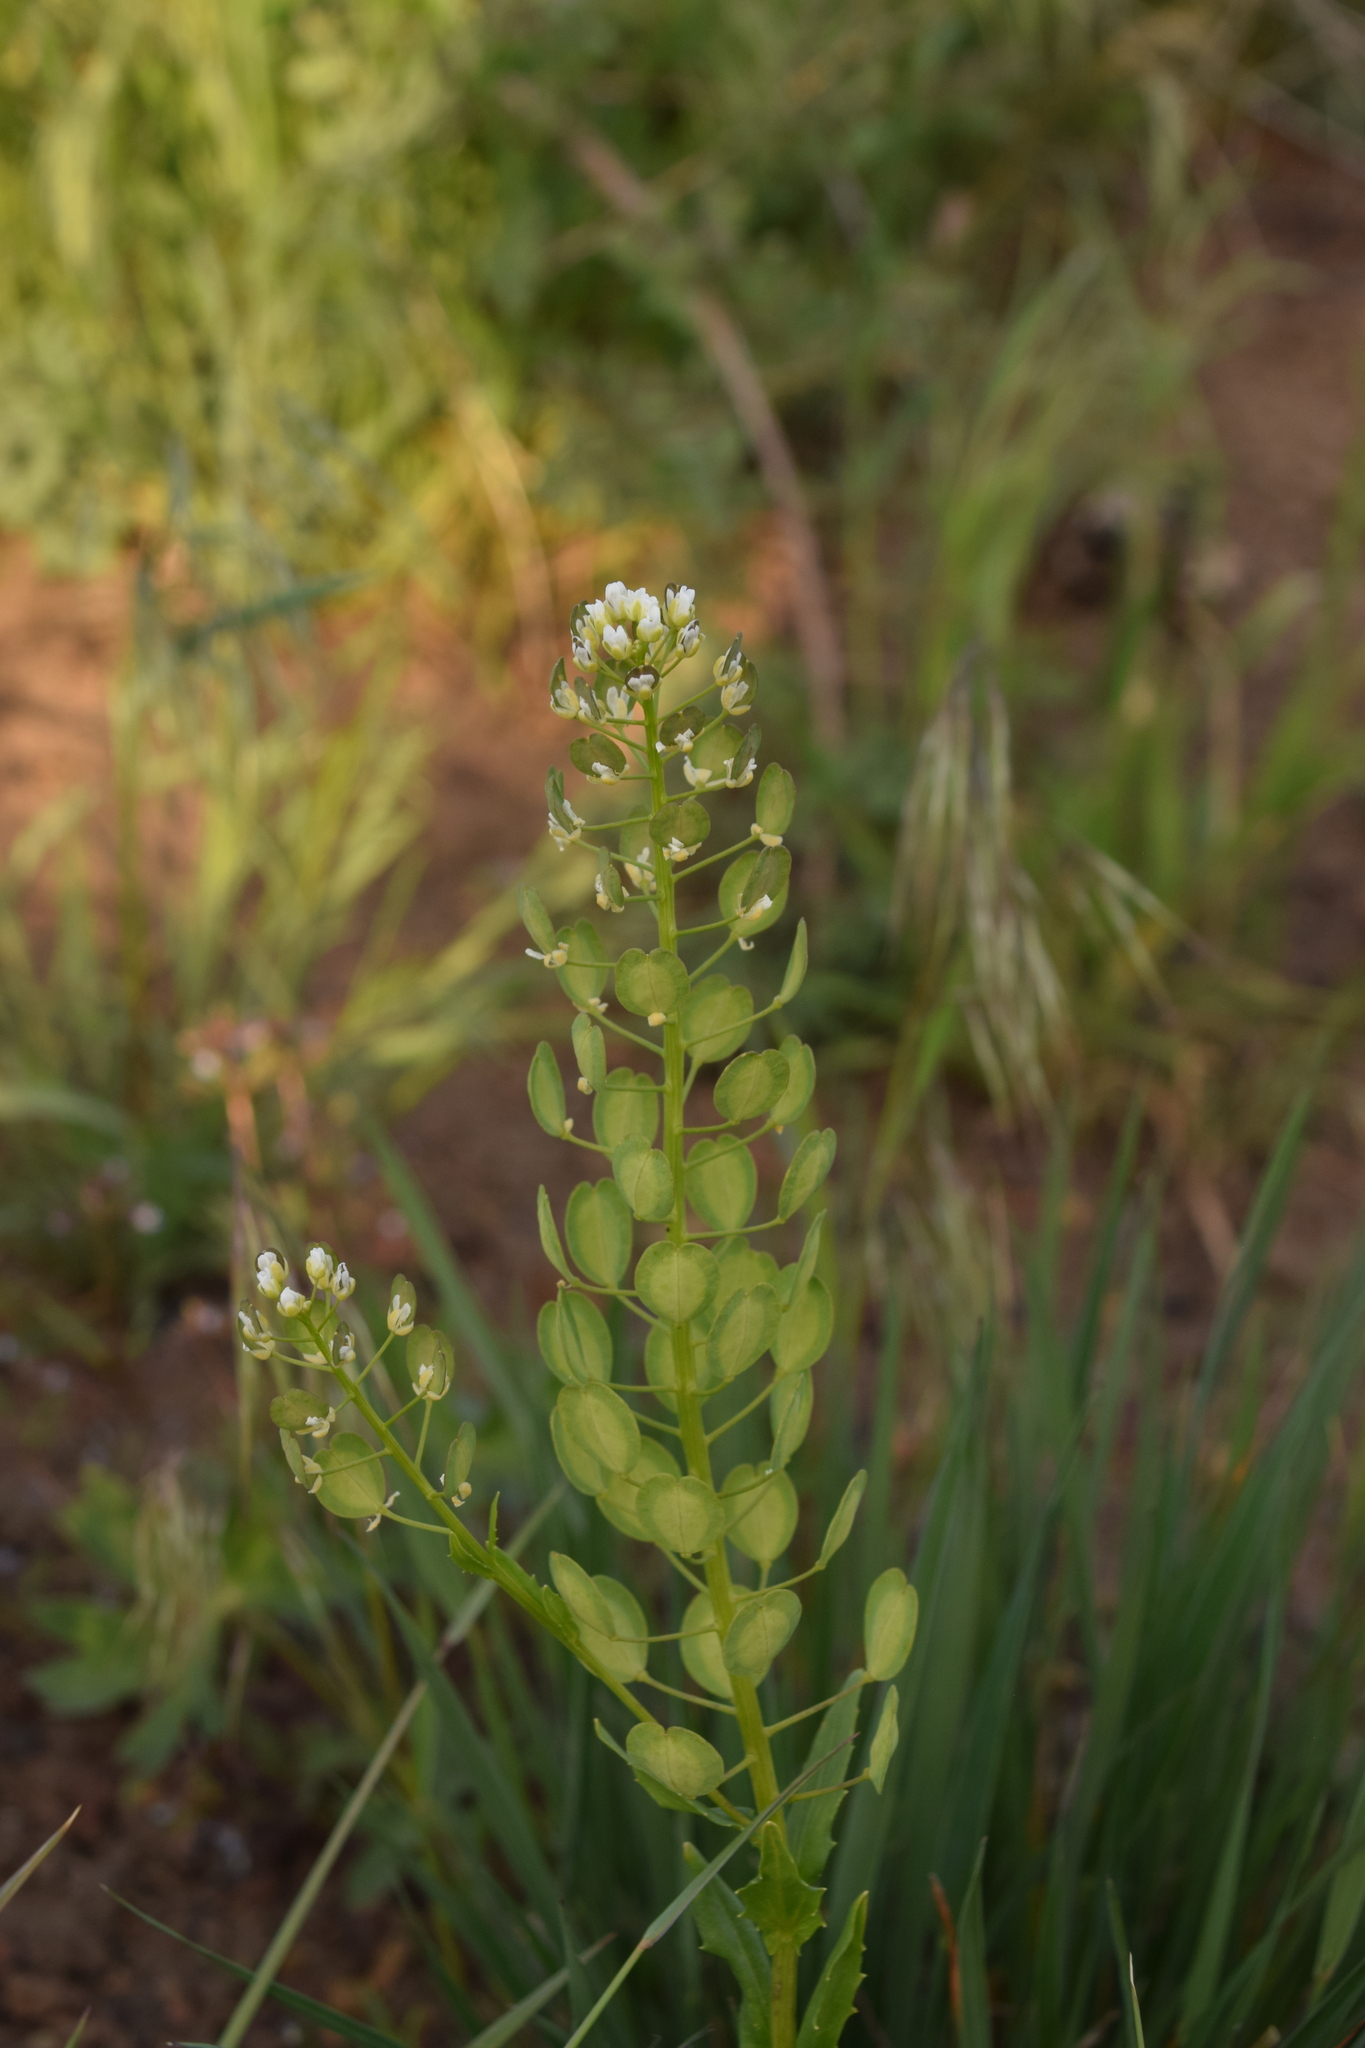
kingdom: Plantae
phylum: Tracheophyta
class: Magnoliopsida
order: Brassicales
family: Brassicaceae
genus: Thlaspi
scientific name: Thlaspi arvense
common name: Field pennycress
